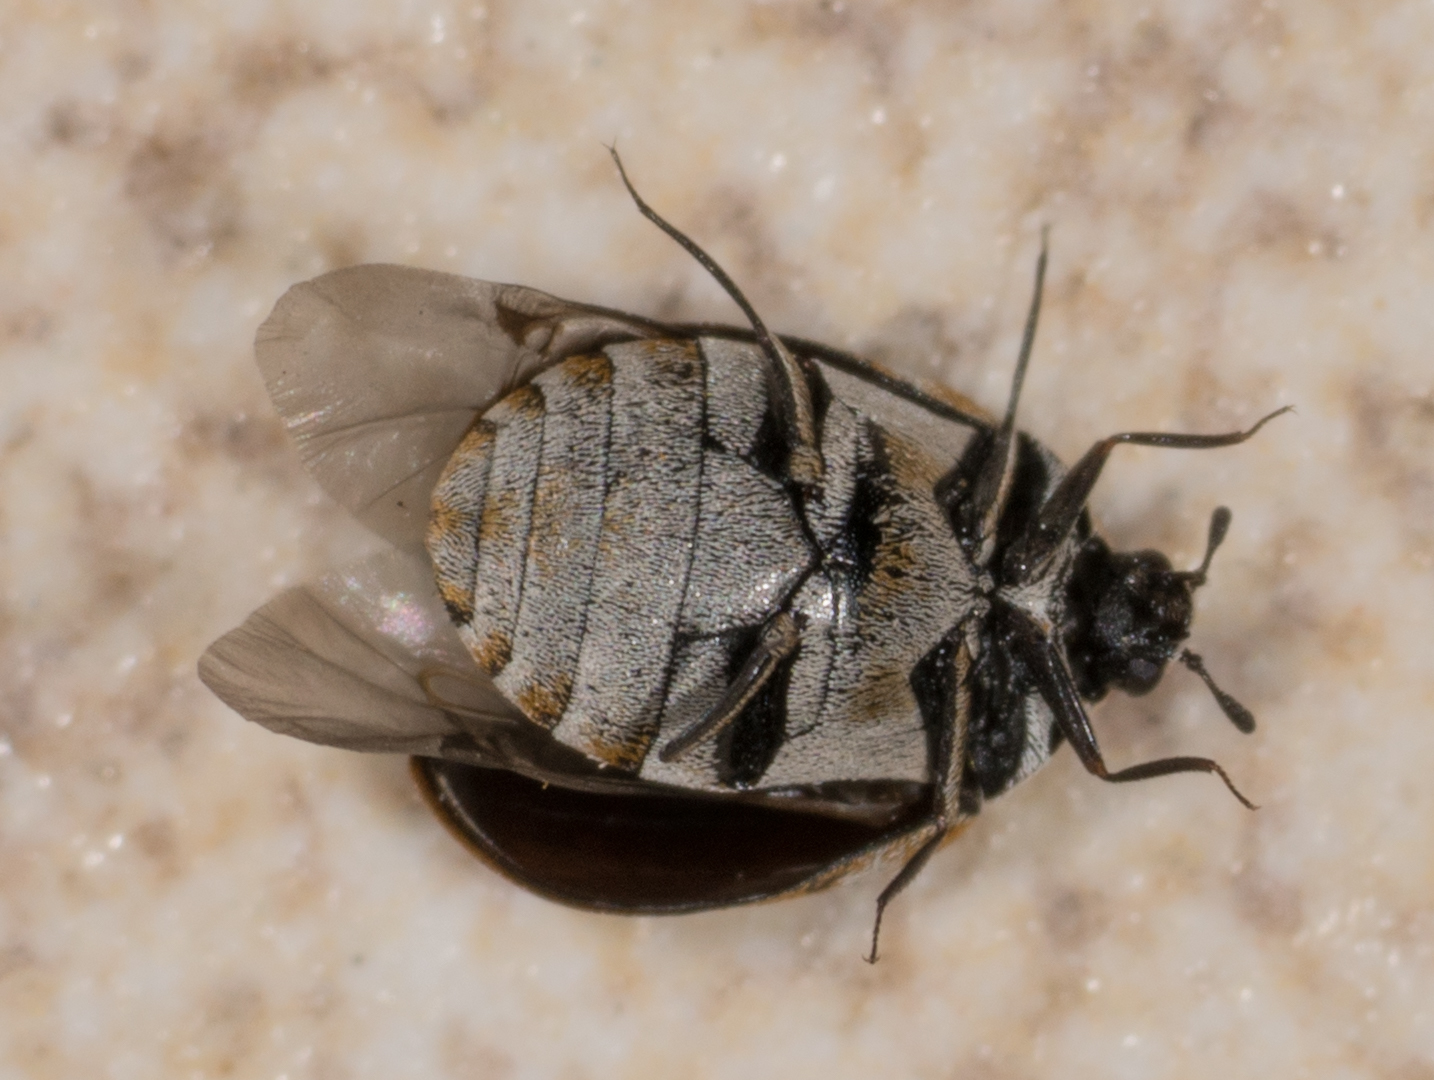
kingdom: Animalia
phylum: Arthropoda
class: Insecta
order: Coleoptera
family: Dermestidae
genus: Anthrenus
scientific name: Anthrenus verbasci
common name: Varied carpet beetle
